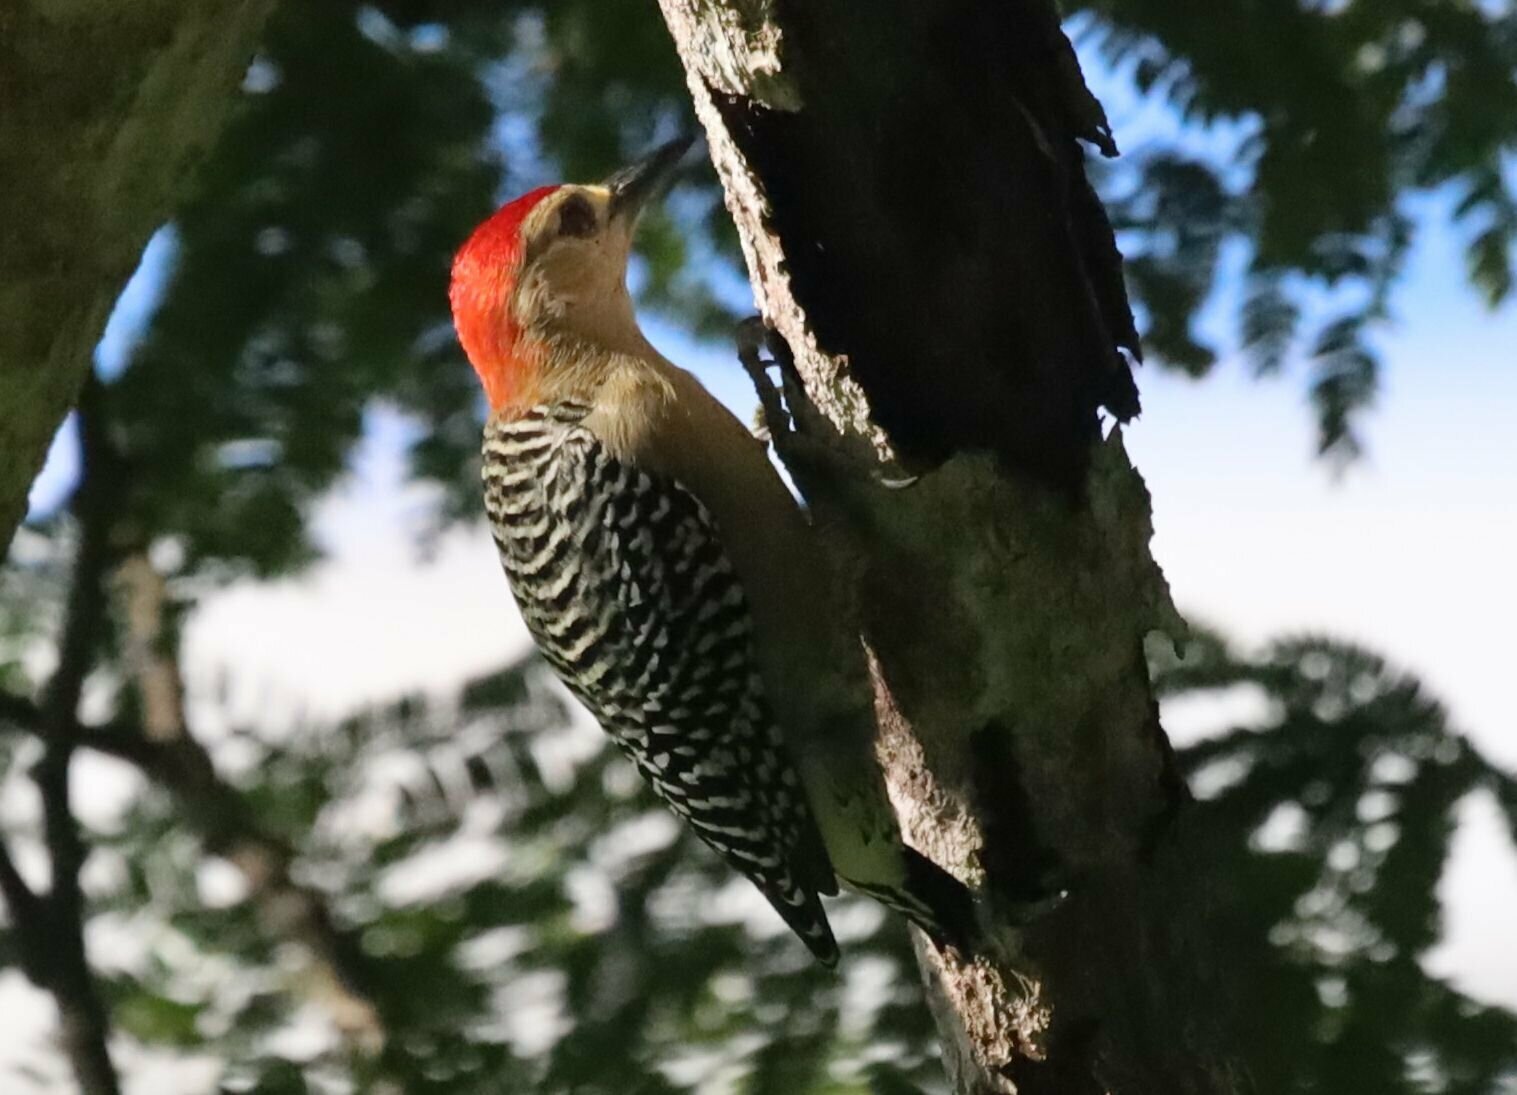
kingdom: Animalia
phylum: Chordata
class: Aves
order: Piciformes
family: Picidae
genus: Melanerpes
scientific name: Melanerpes rubricapillus
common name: Red-crowned woodpecker
